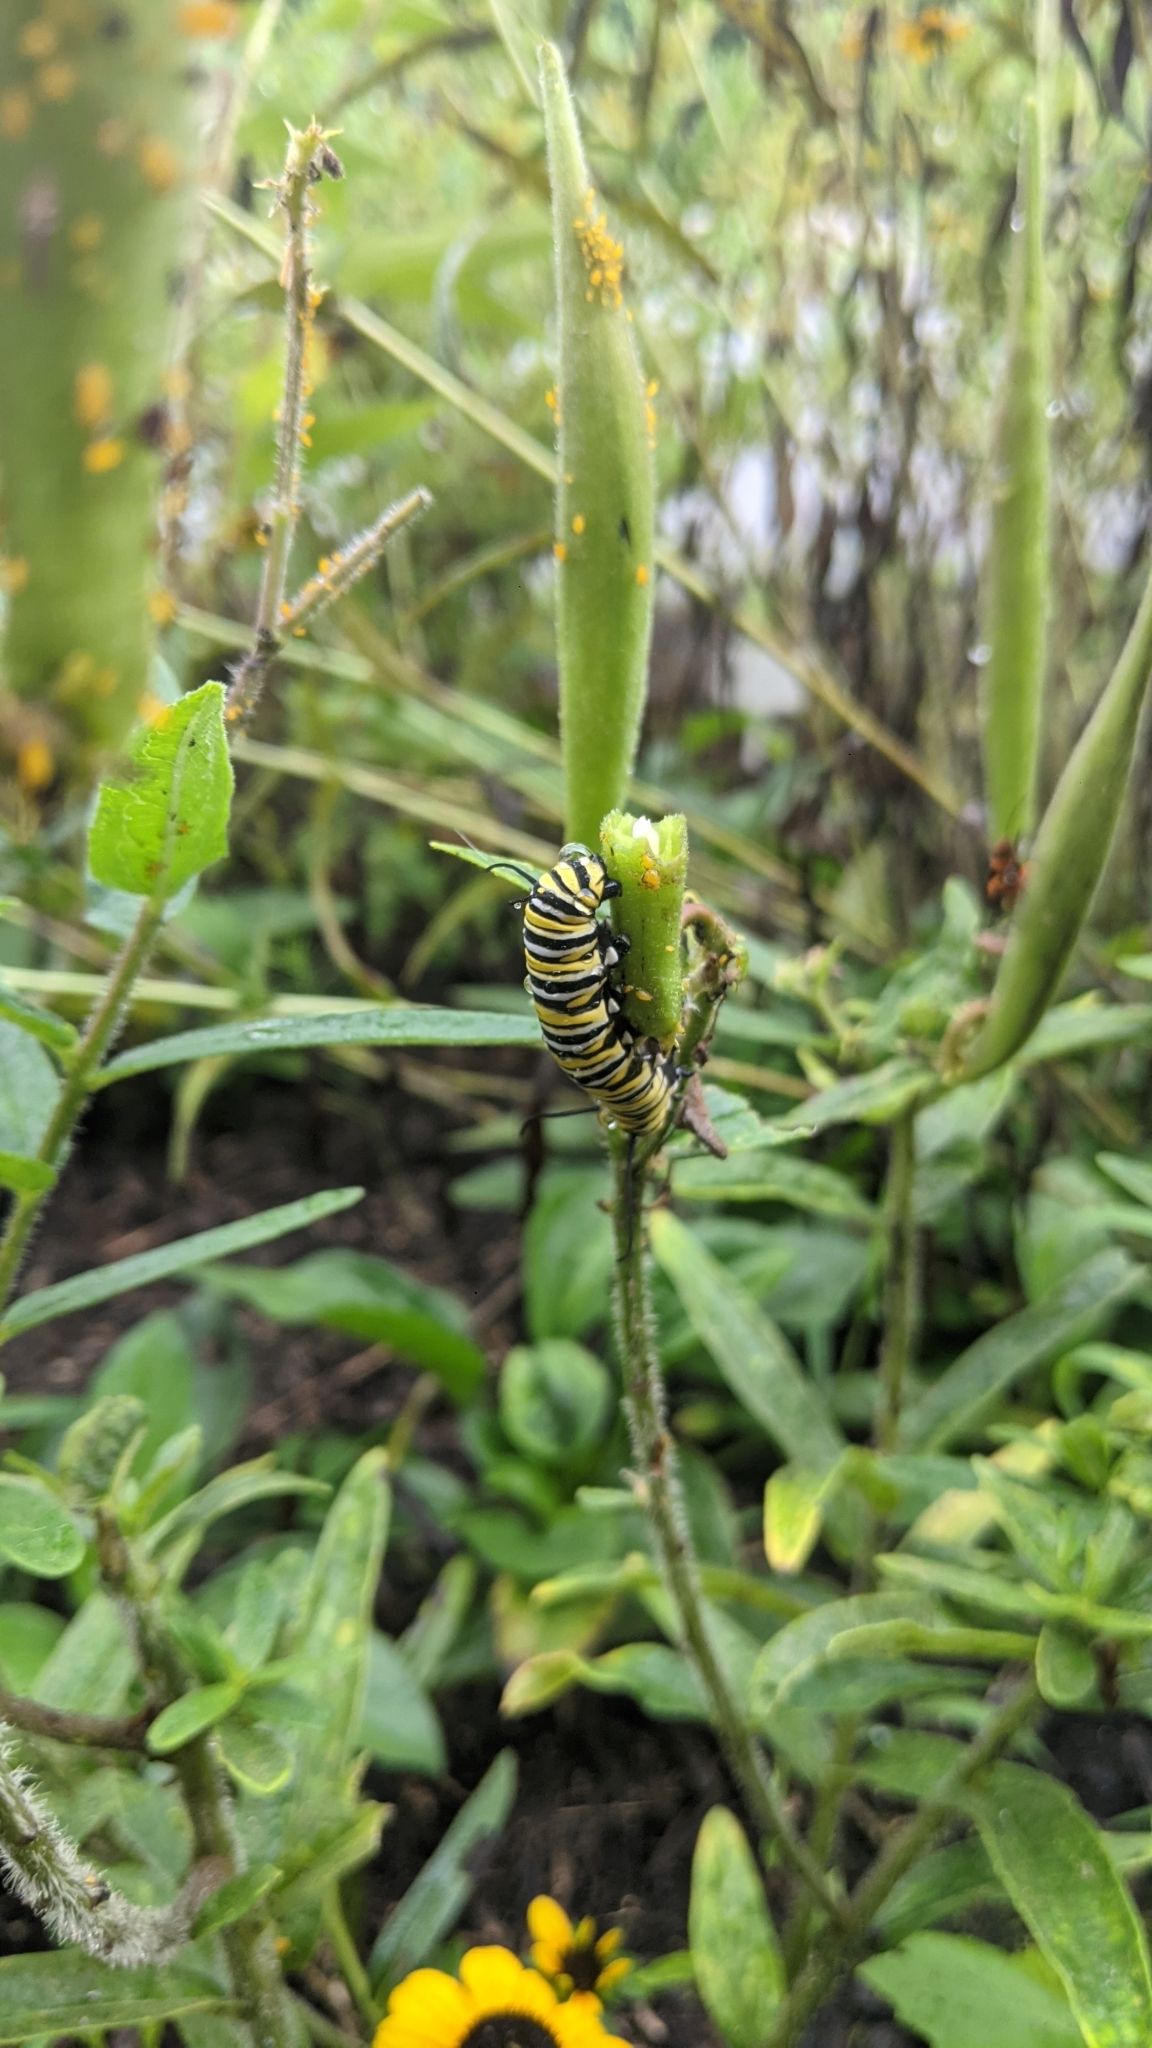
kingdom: Animalia
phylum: Arthropoda
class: Insecta
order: Lepidoptera
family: Nymphalidae
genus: Danaus
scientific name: Danaus plexippus
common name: Monarch
